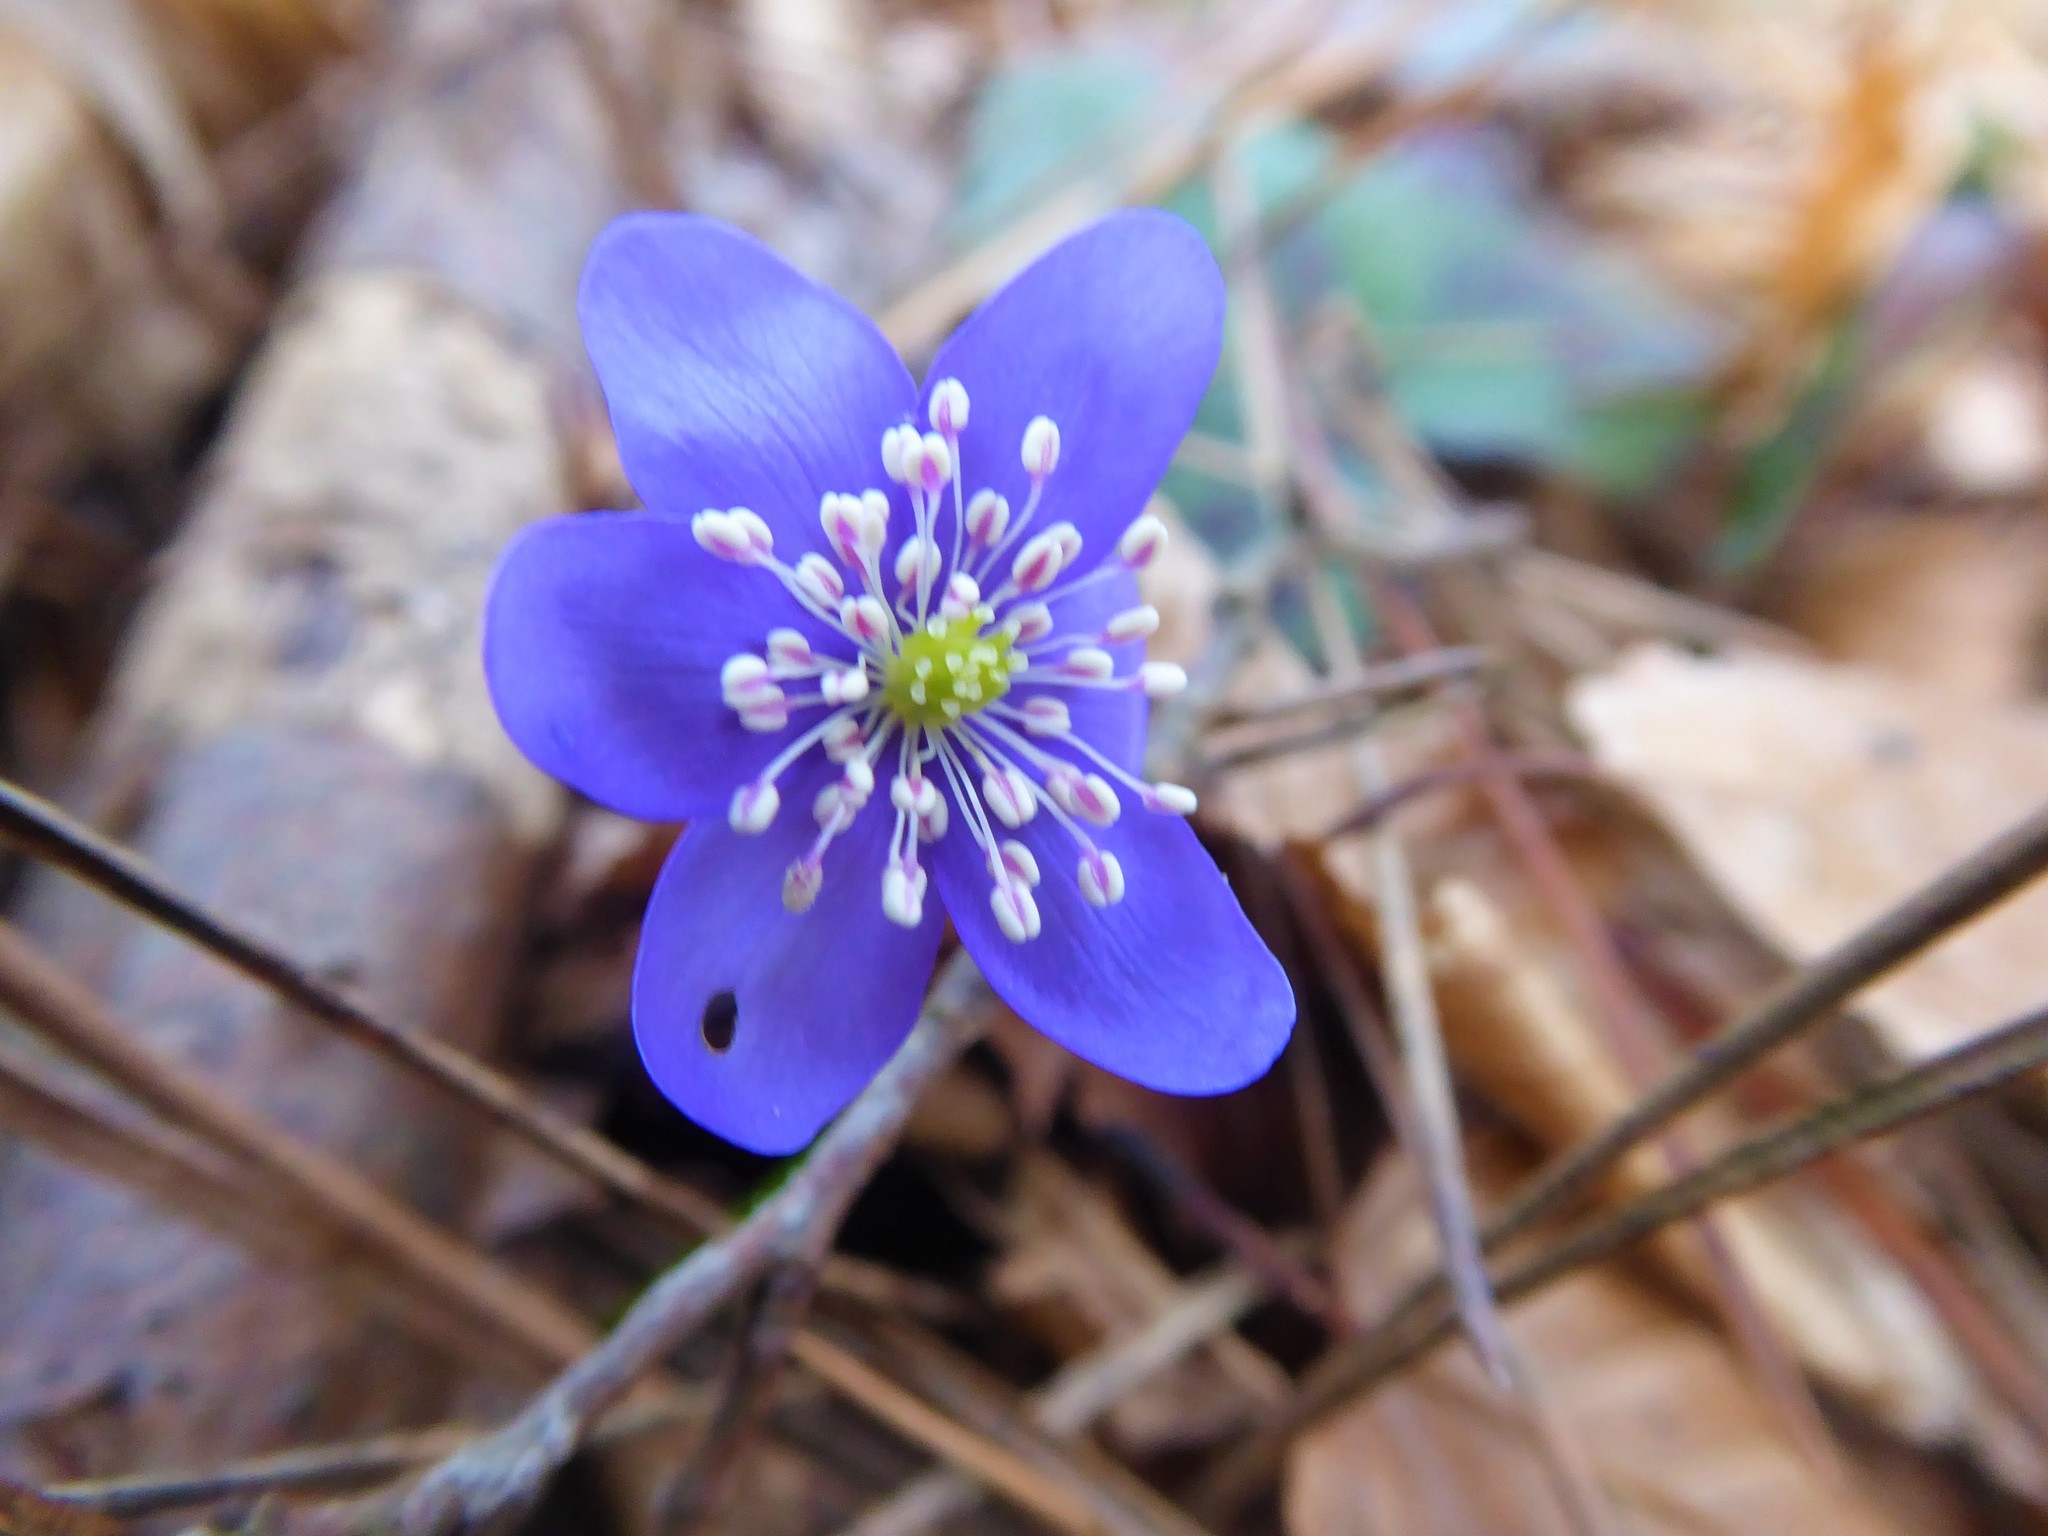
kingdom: Plantae
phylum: Tracheophyta
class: Magnoliopsida
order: Ranunculales
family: Ranunculaceae
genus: Hepatica
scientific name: Hepatica nobilis
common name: Liverleaf
